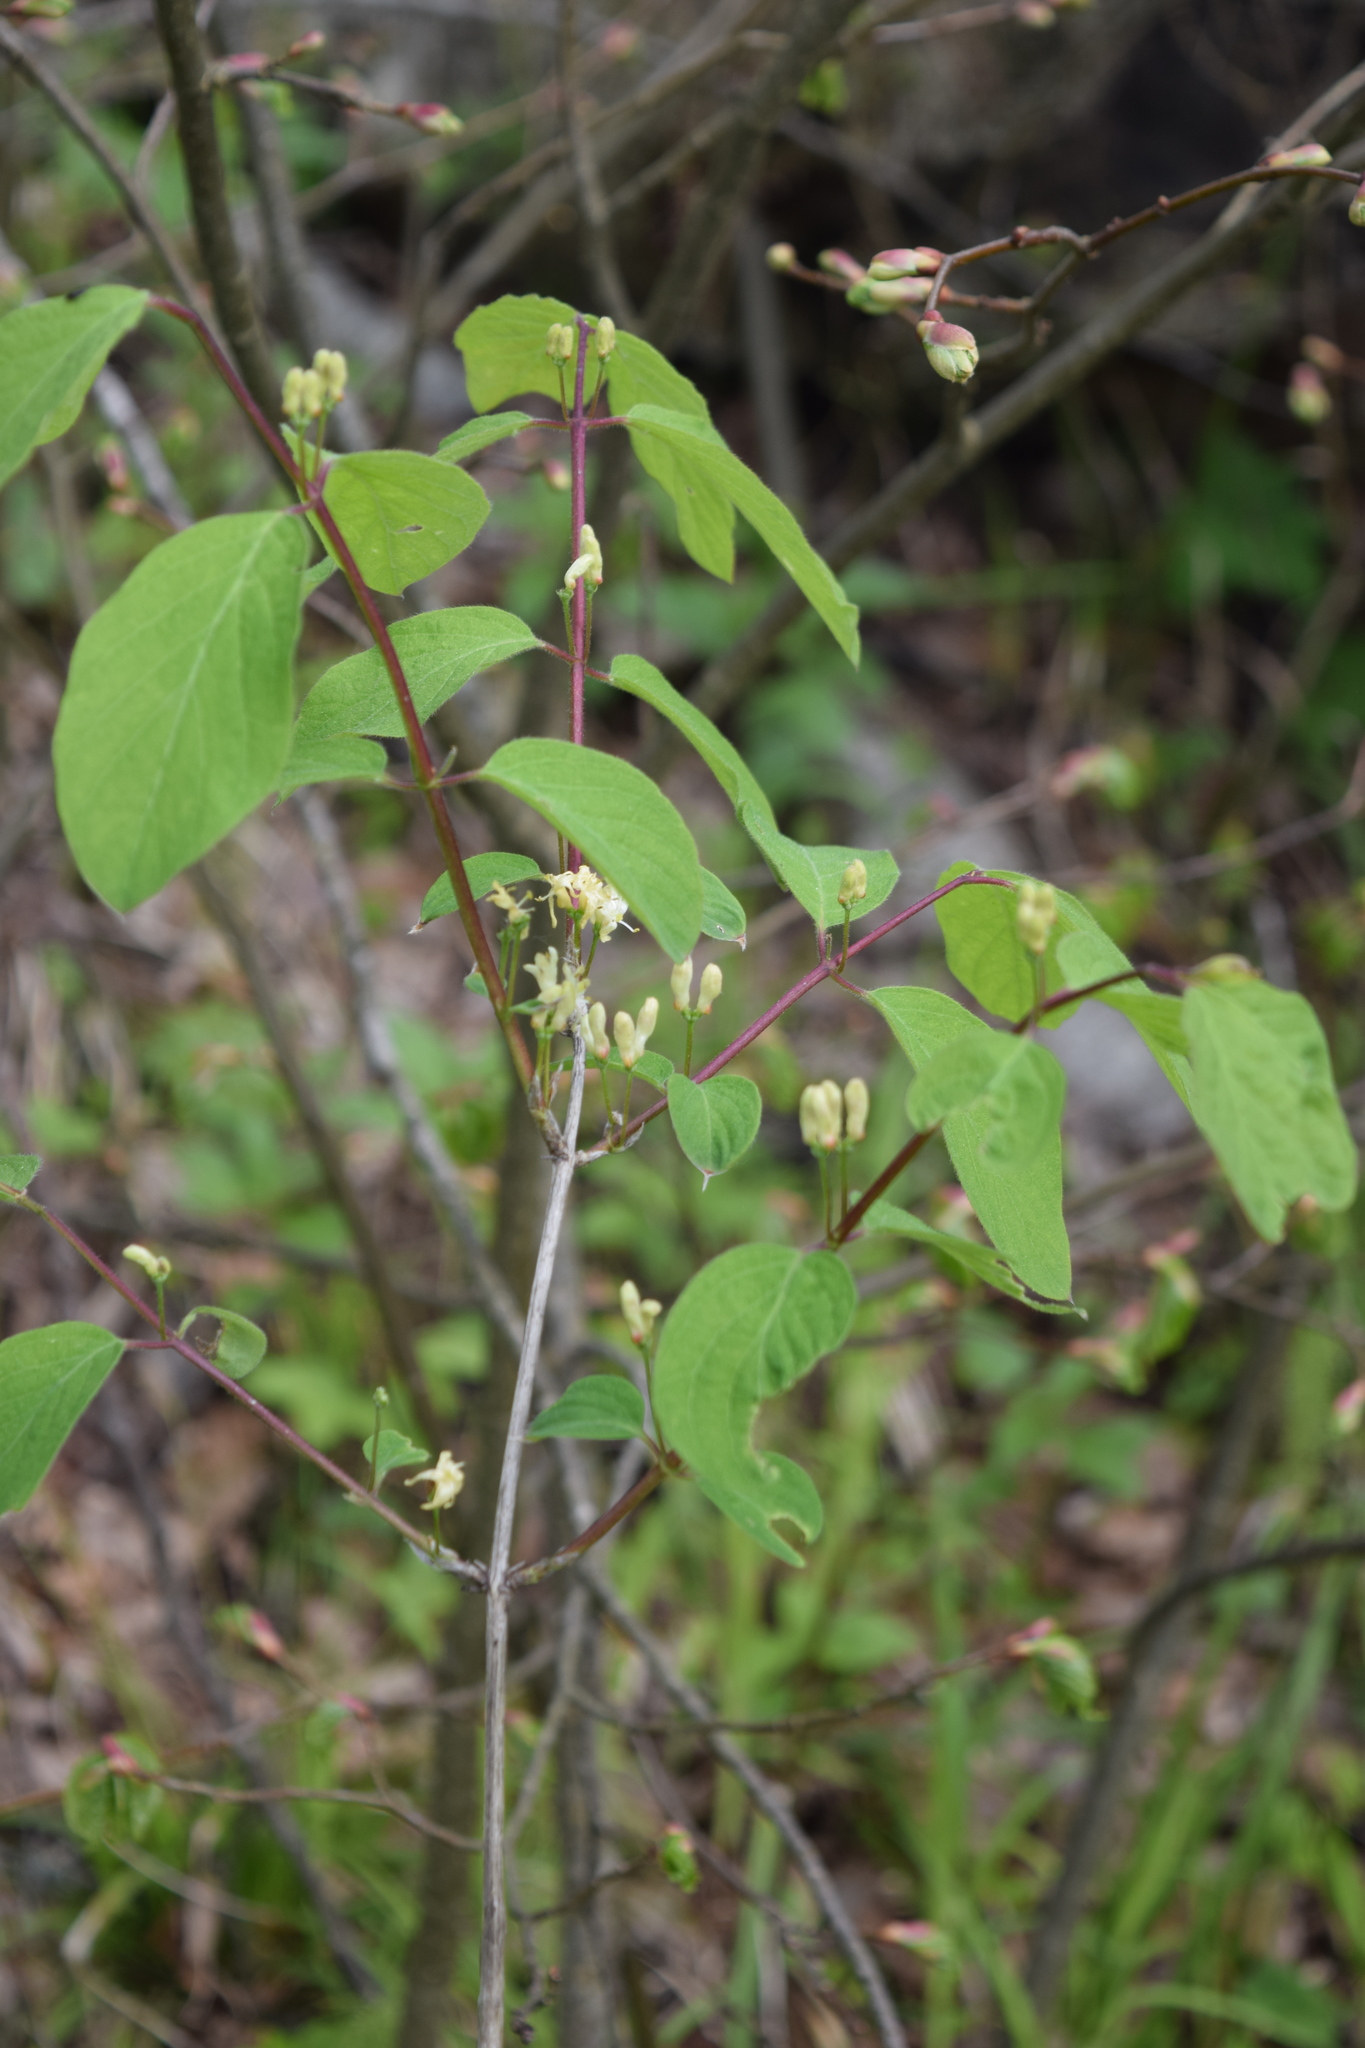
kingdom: Plantae
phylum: Tracheophyta
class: Magnoliopsida
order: Dipsacales
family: Caprifoliaceae
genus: Lonicera
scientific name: Lonicera xylosteum
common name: Fly honeysuckle
